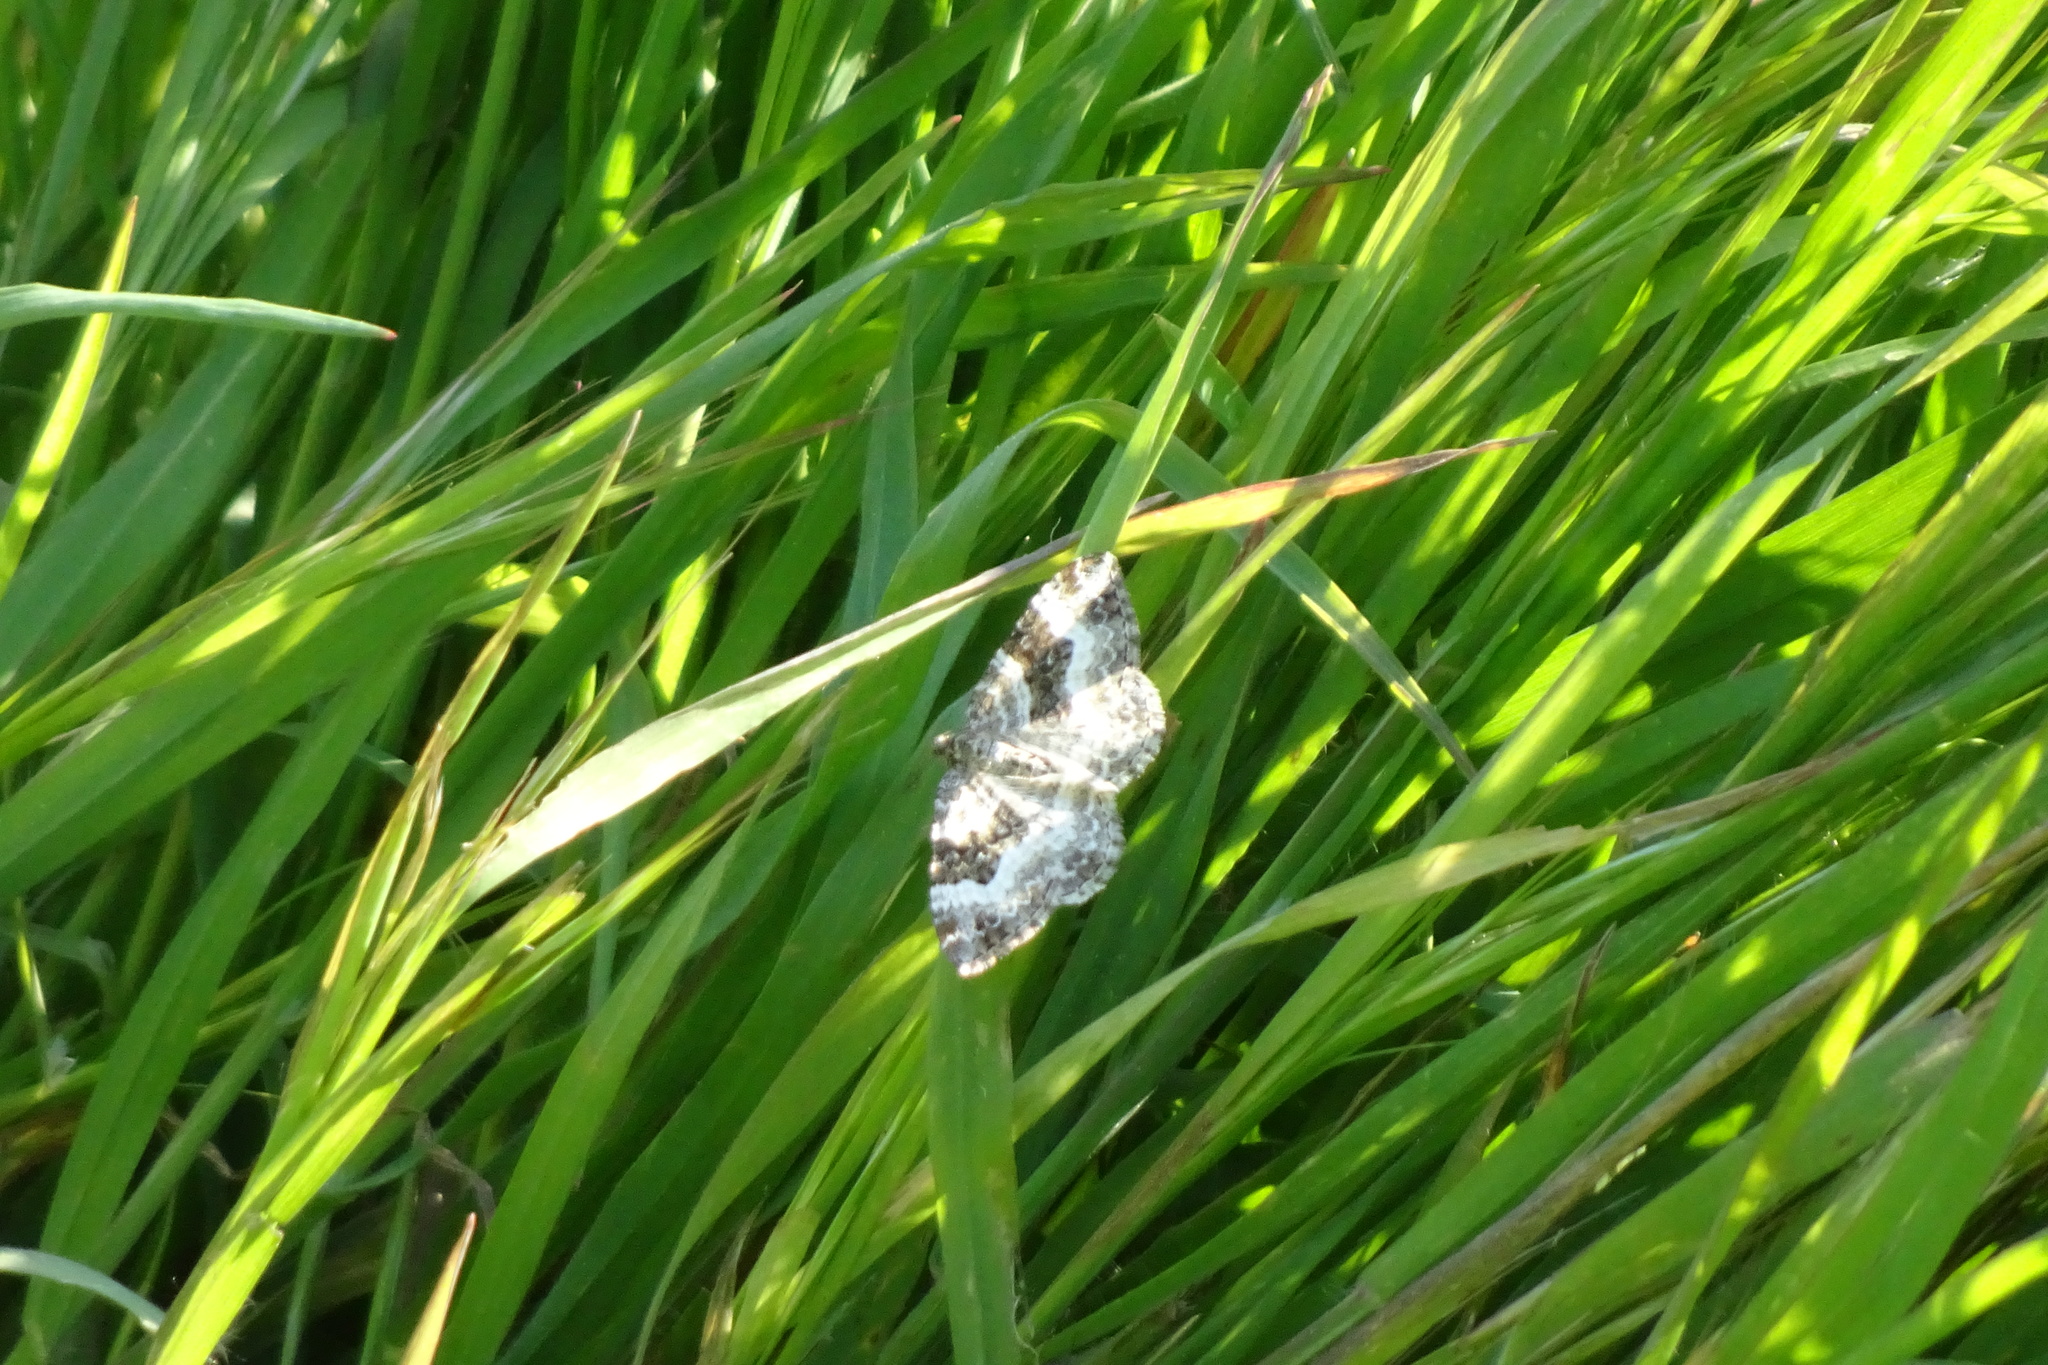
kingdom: Animalia
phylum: Arthropoda
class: Insecta
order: Lepidoptera
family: Geometridae
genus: Epirrhoe
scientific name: Epirrhoe alternata
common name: Common carpet
